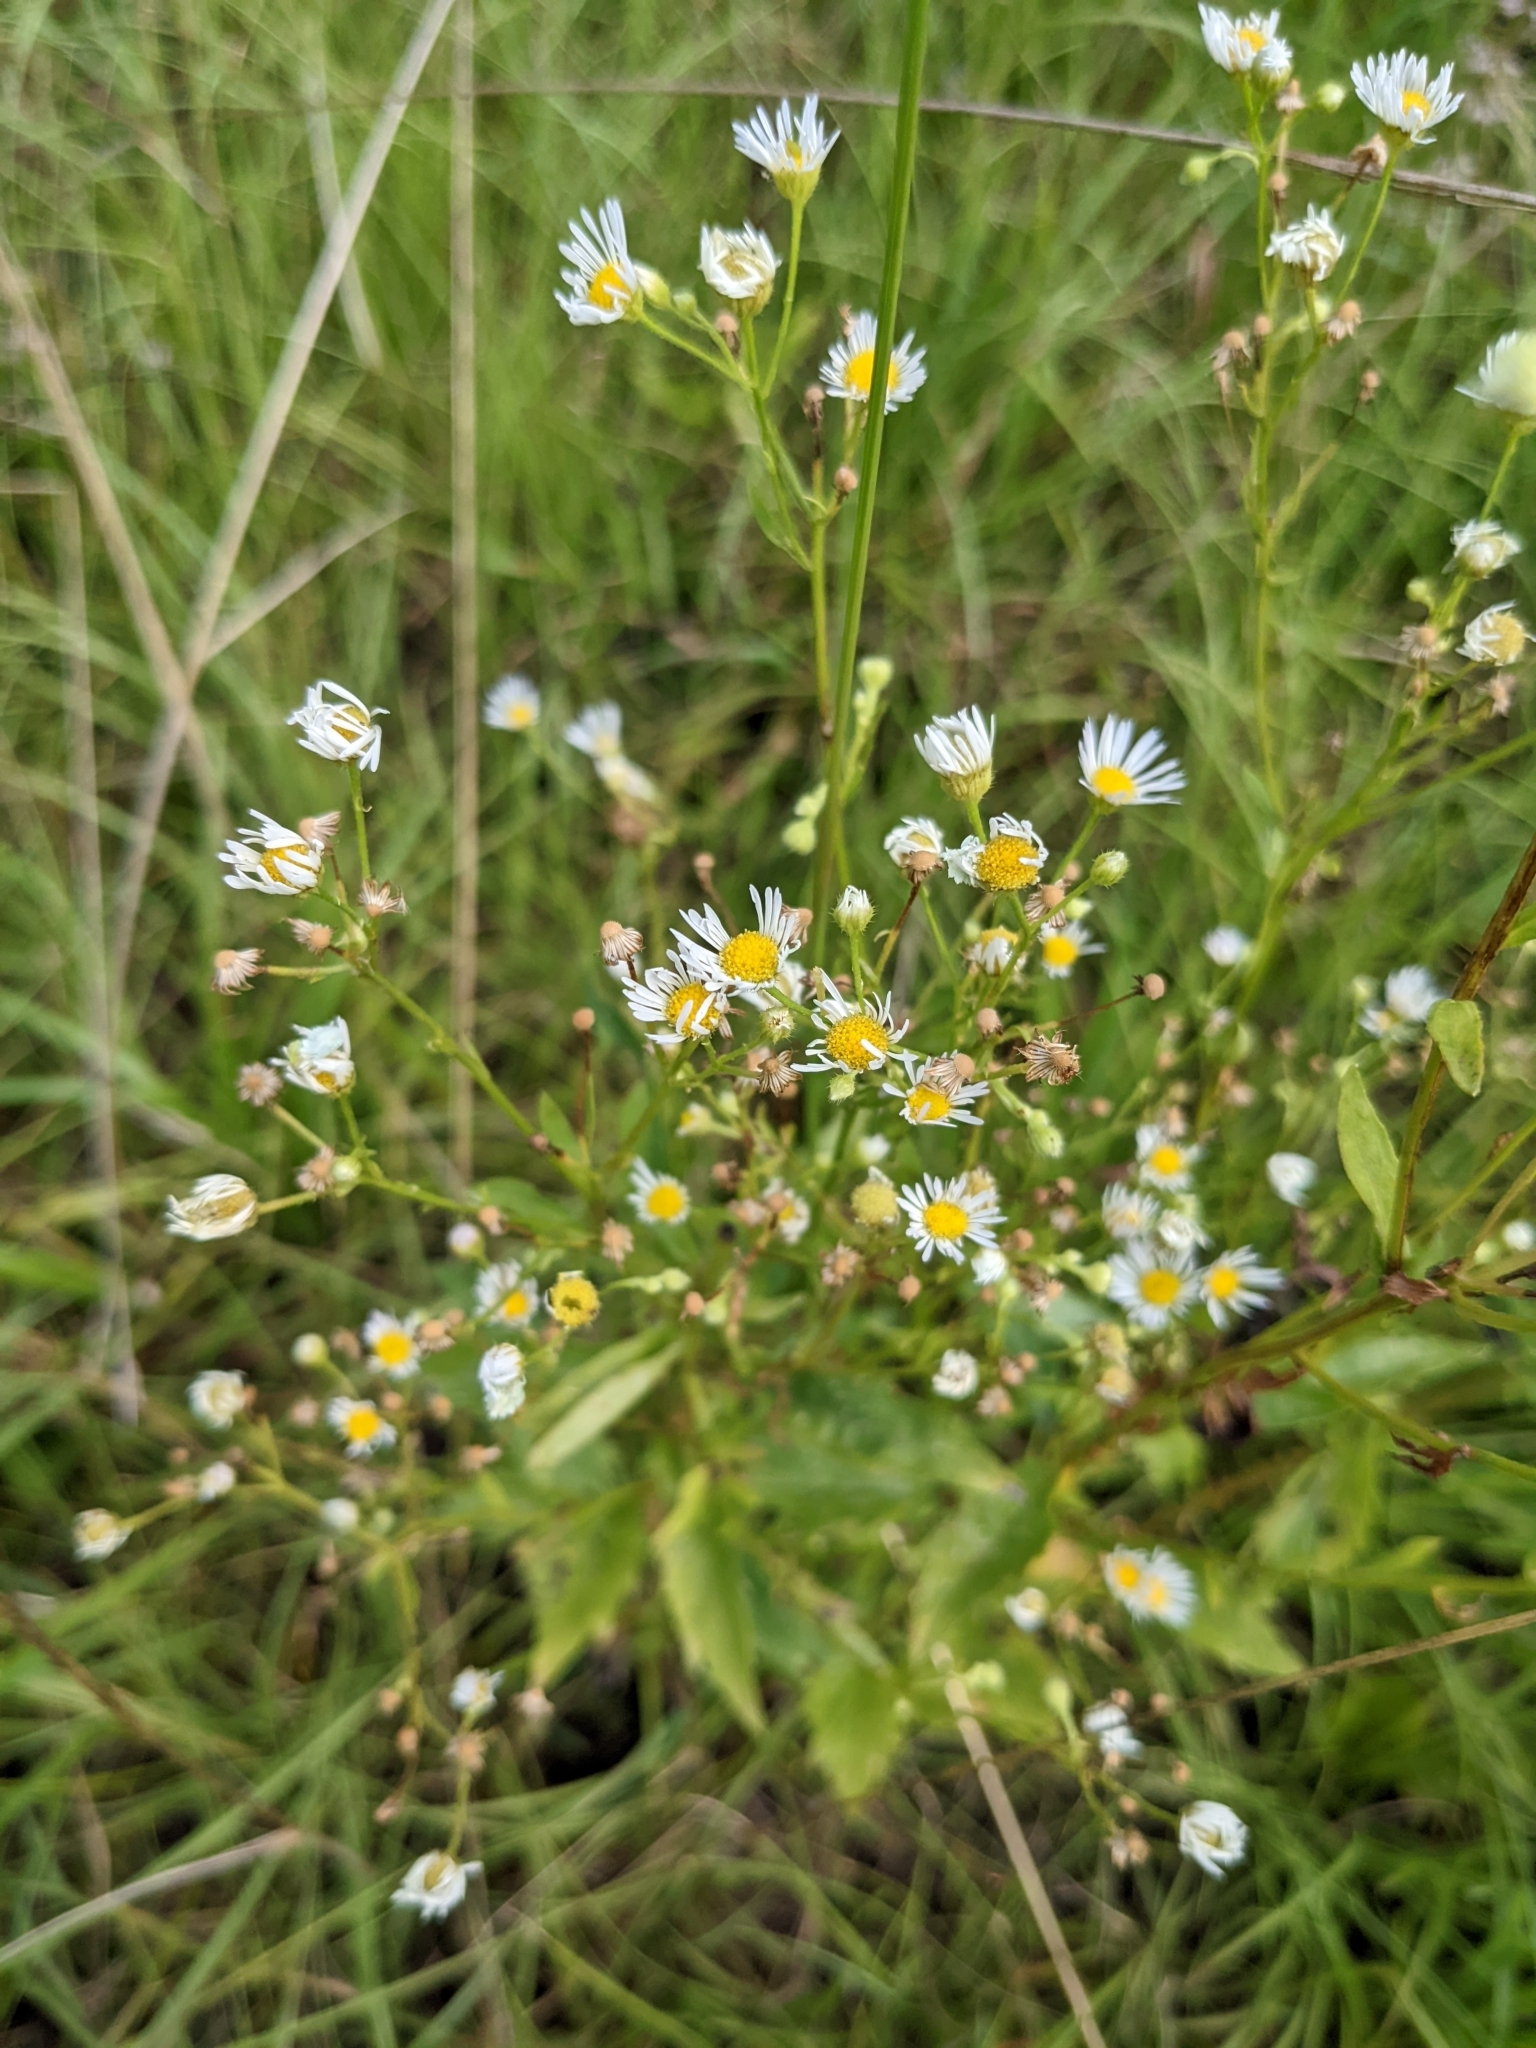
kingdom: Plantae
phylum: Tracheophyta
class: Magnoliopsida
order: Asterales
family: Asteraceae
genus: Erigeron
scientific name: Erigeron annuus
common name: Tall fleabane
